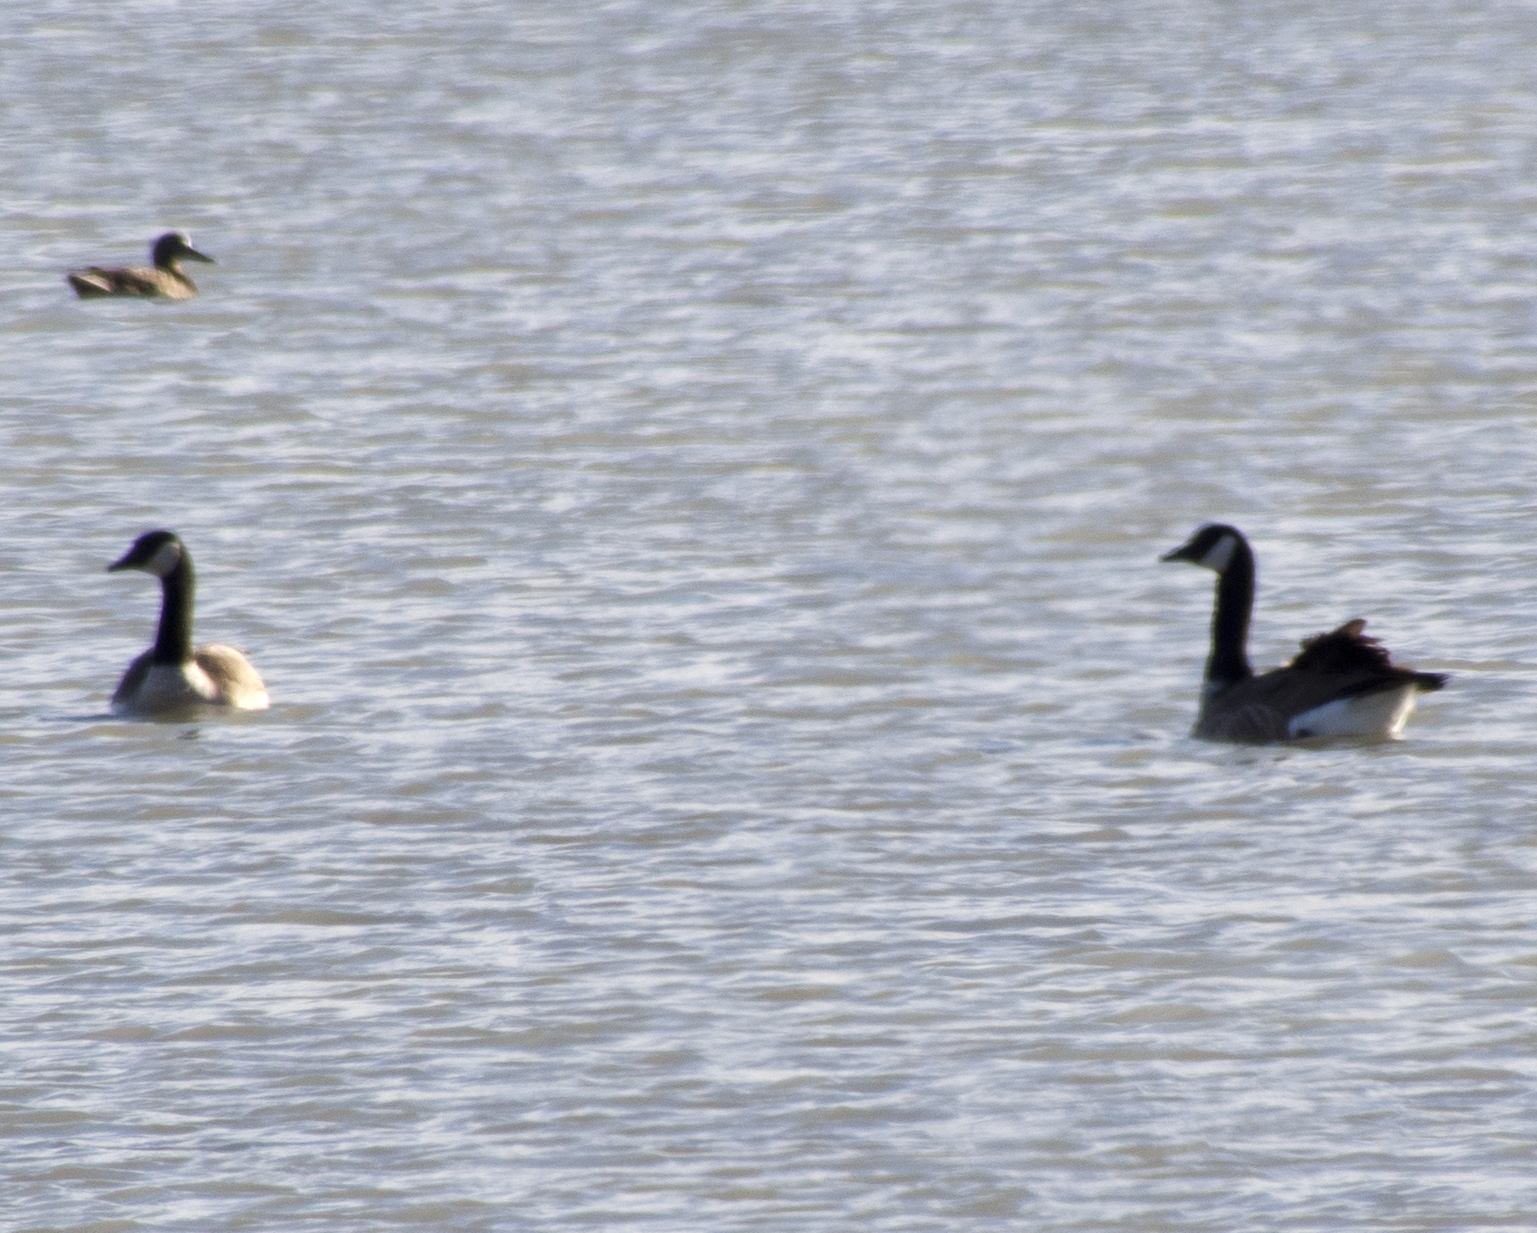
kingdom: Animalia
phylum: Chordata
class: Aves
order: Anseriformes
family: Anatidae
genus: Branta
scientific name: Branta canadensis
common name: Canada goose
